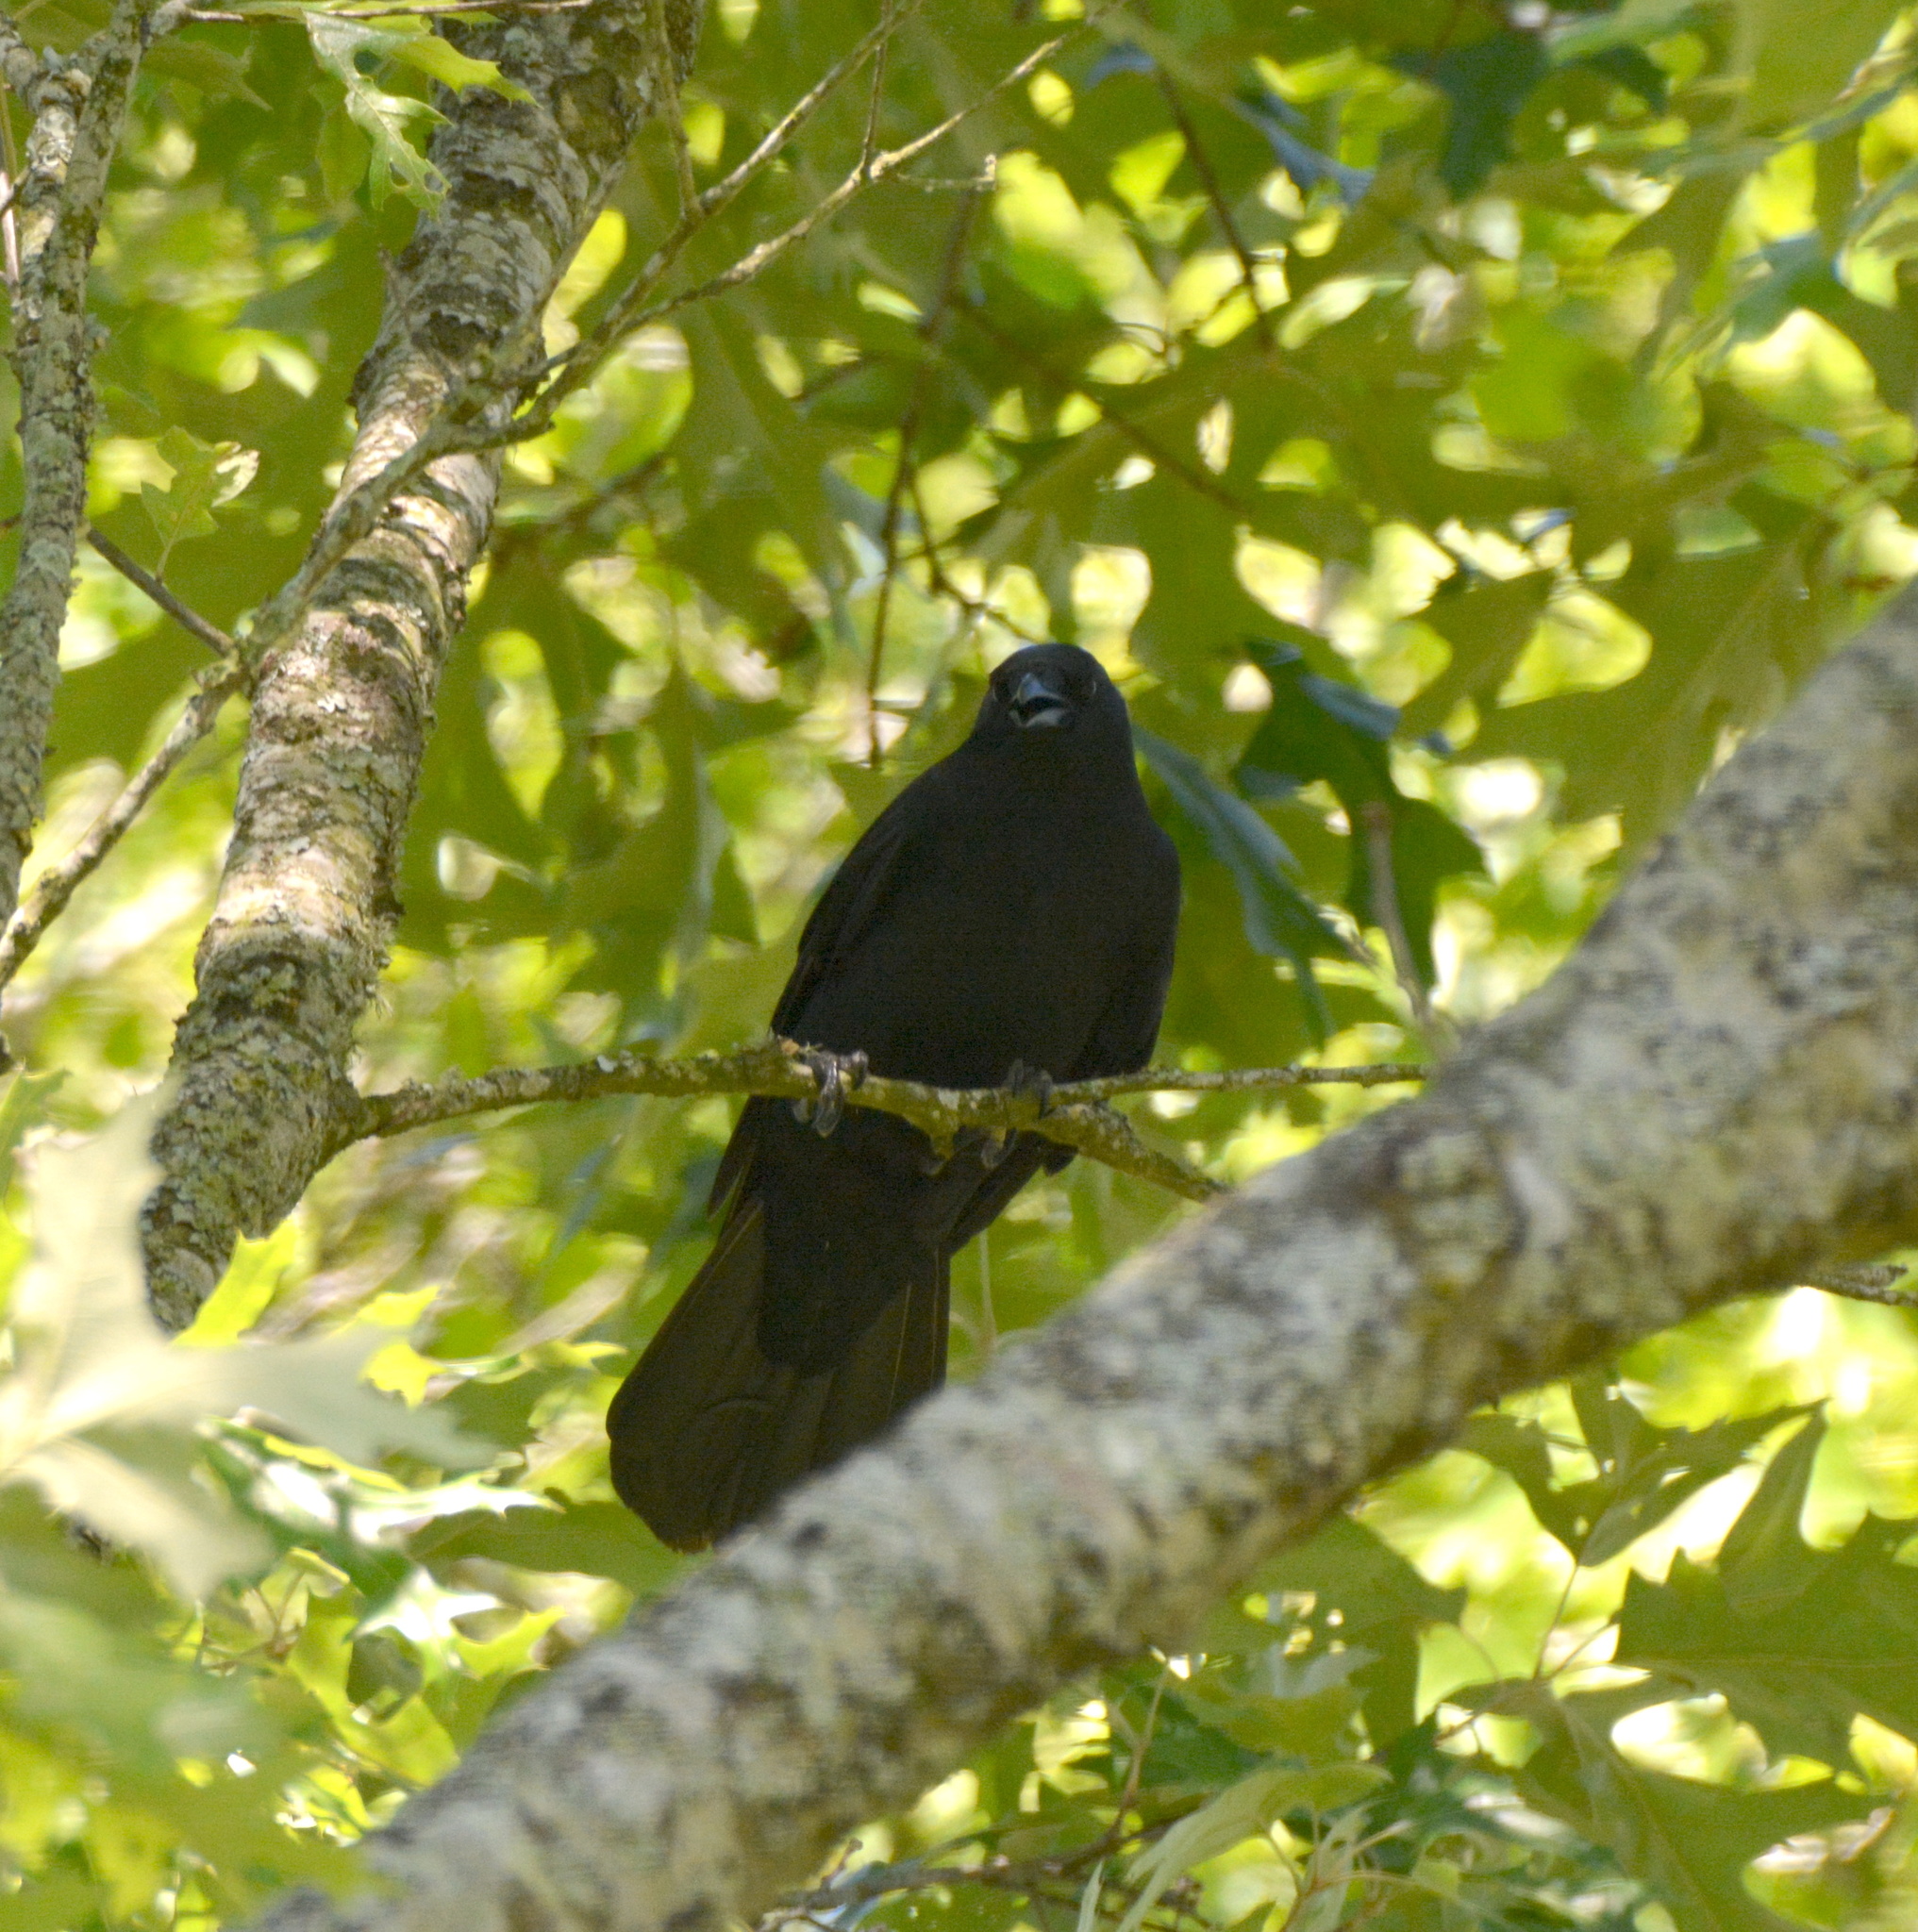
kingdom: Animalia
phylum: Chordata
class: Aves
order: Passeriformes
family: Corvidae
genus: Corvus
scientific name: Corvus brachyrhynchos
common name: American crow
